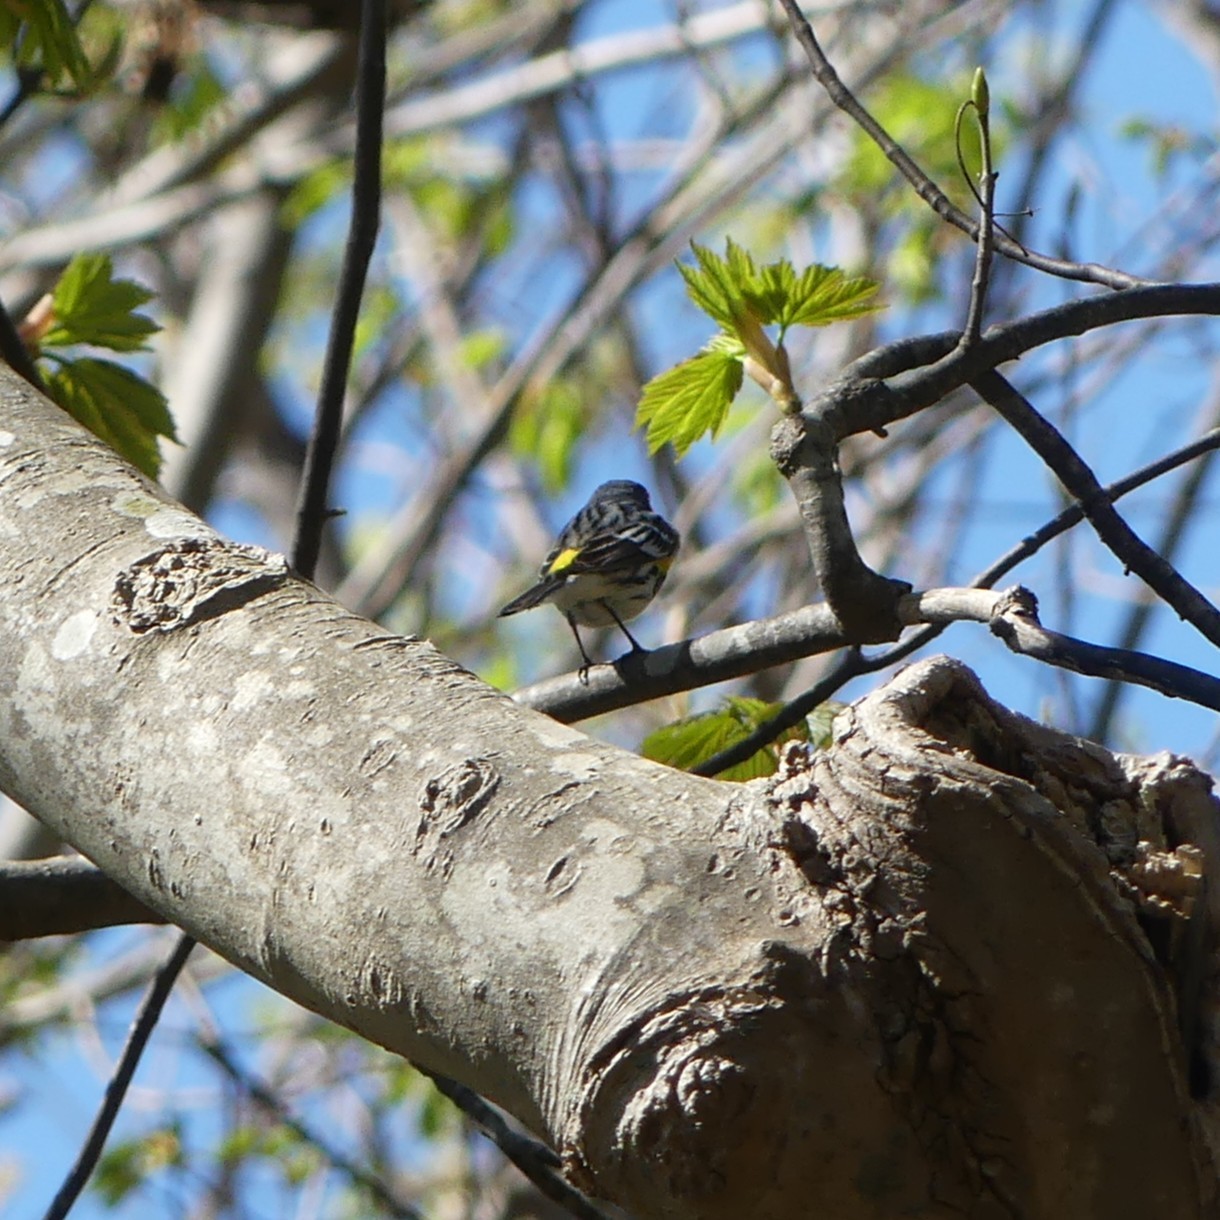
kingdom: Animalia
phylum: Chordata
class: Aves
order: Passeriformes
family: Parulidae
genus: Setophaga
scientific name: Setophaga coronata
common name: Myrtle warbler
